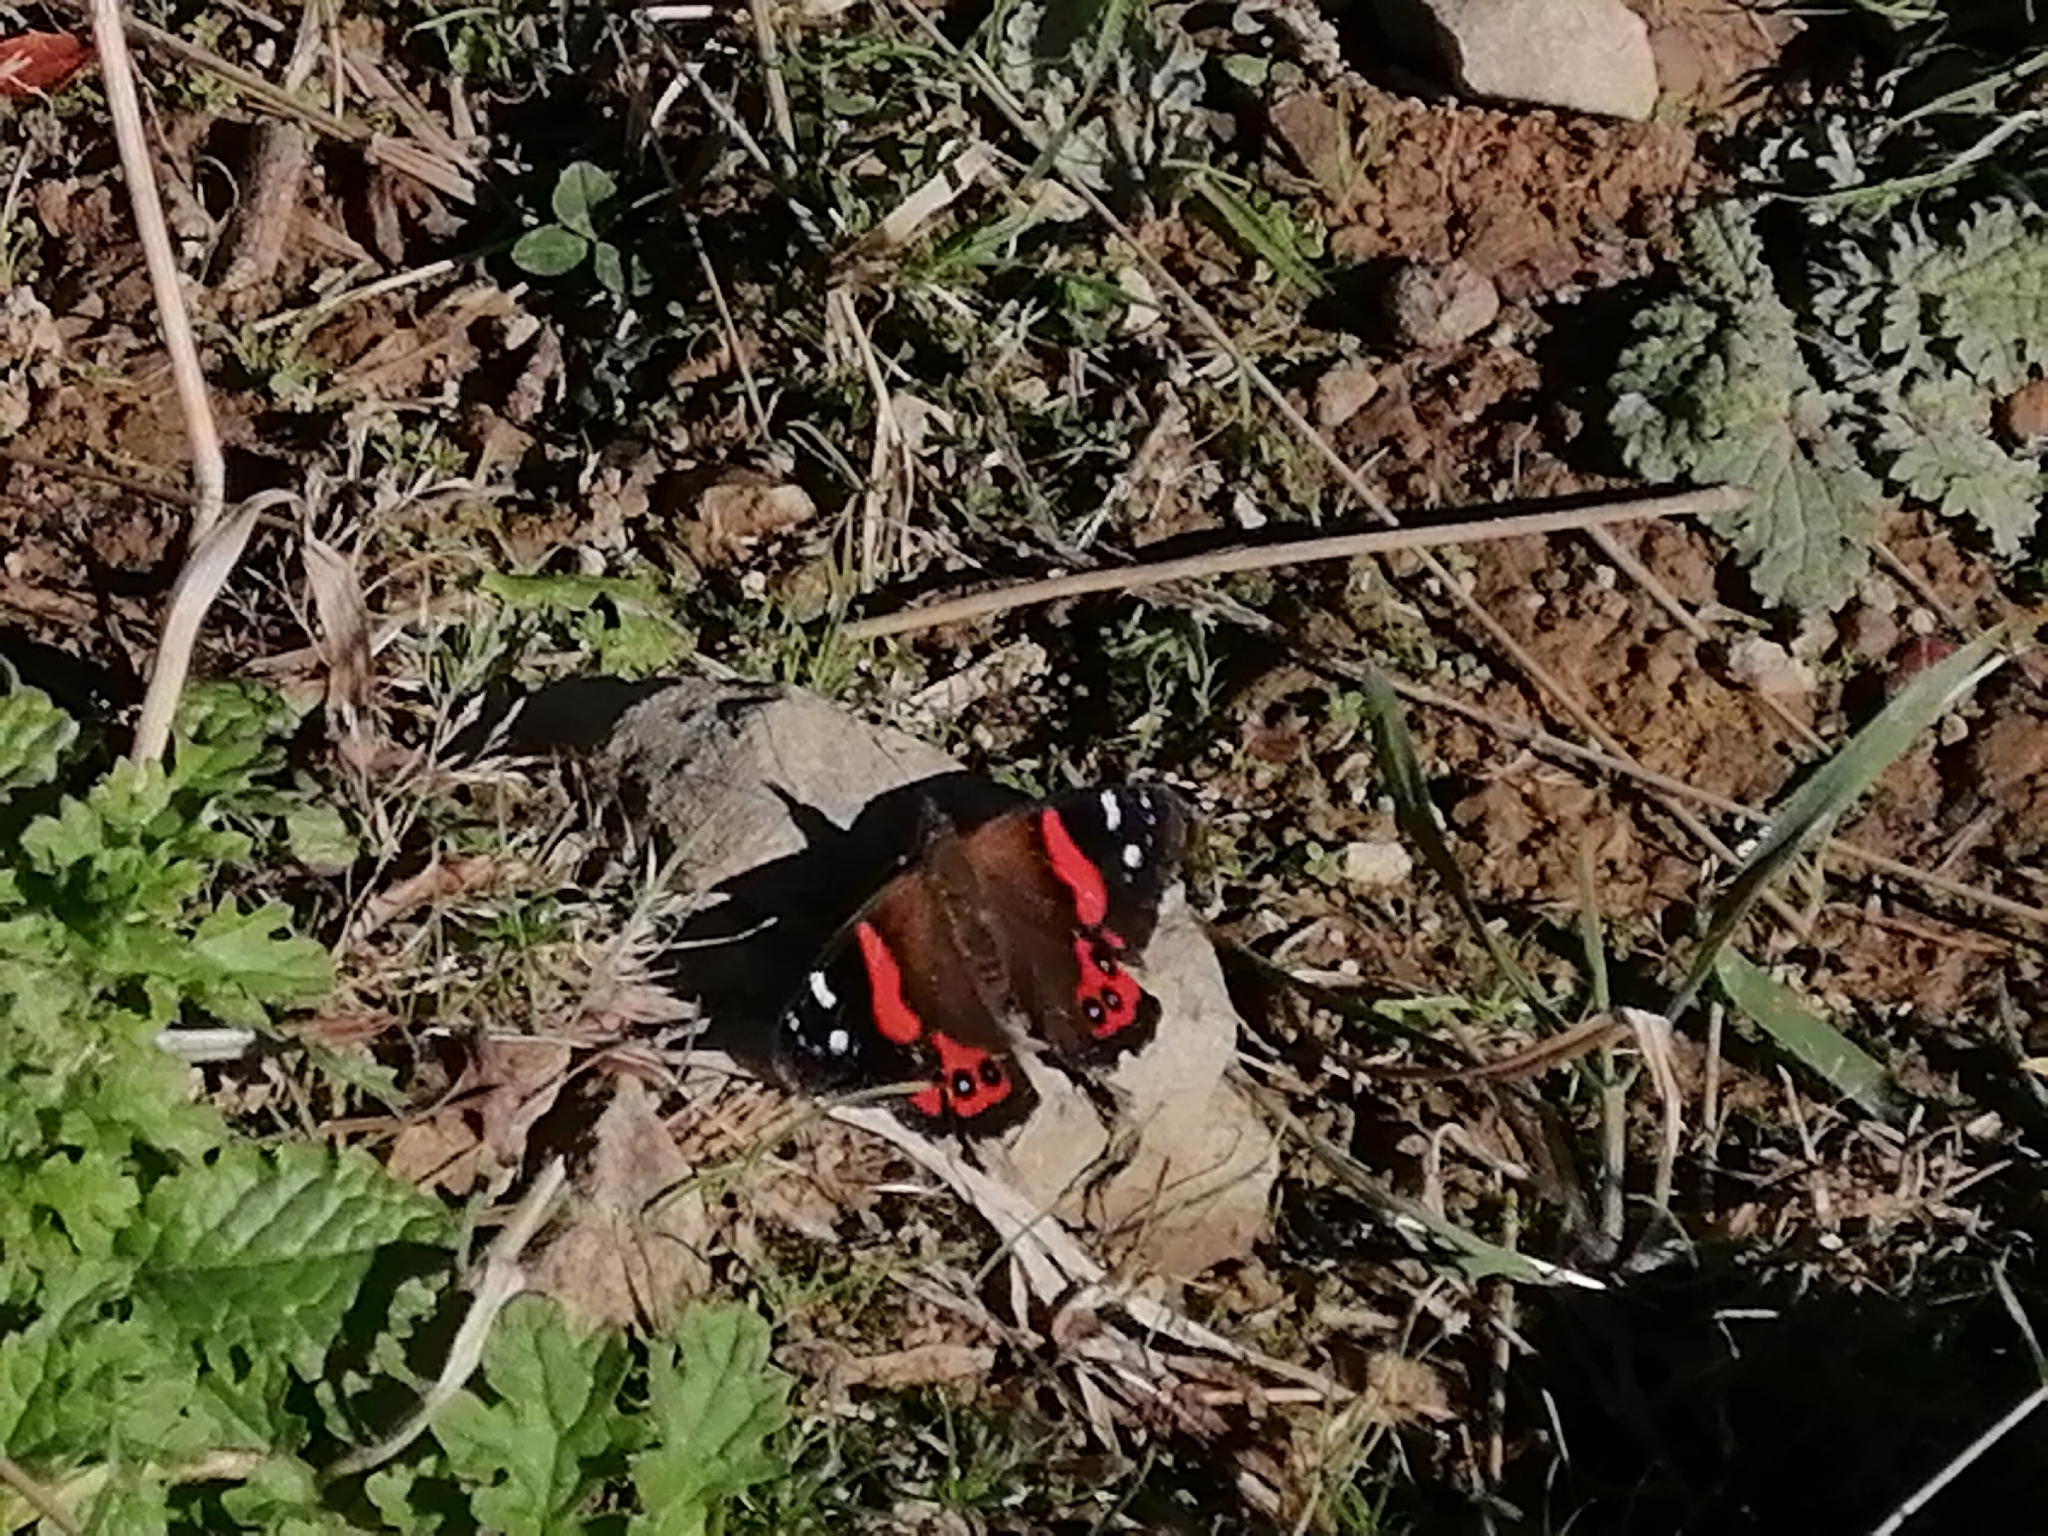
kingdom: Animalia
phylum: Arthropoda
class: Insecta
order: Lepidoptera
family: Nymphalidae
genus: Vanessa
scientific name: Vanessa gonerilla
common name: New zealand red admiral
